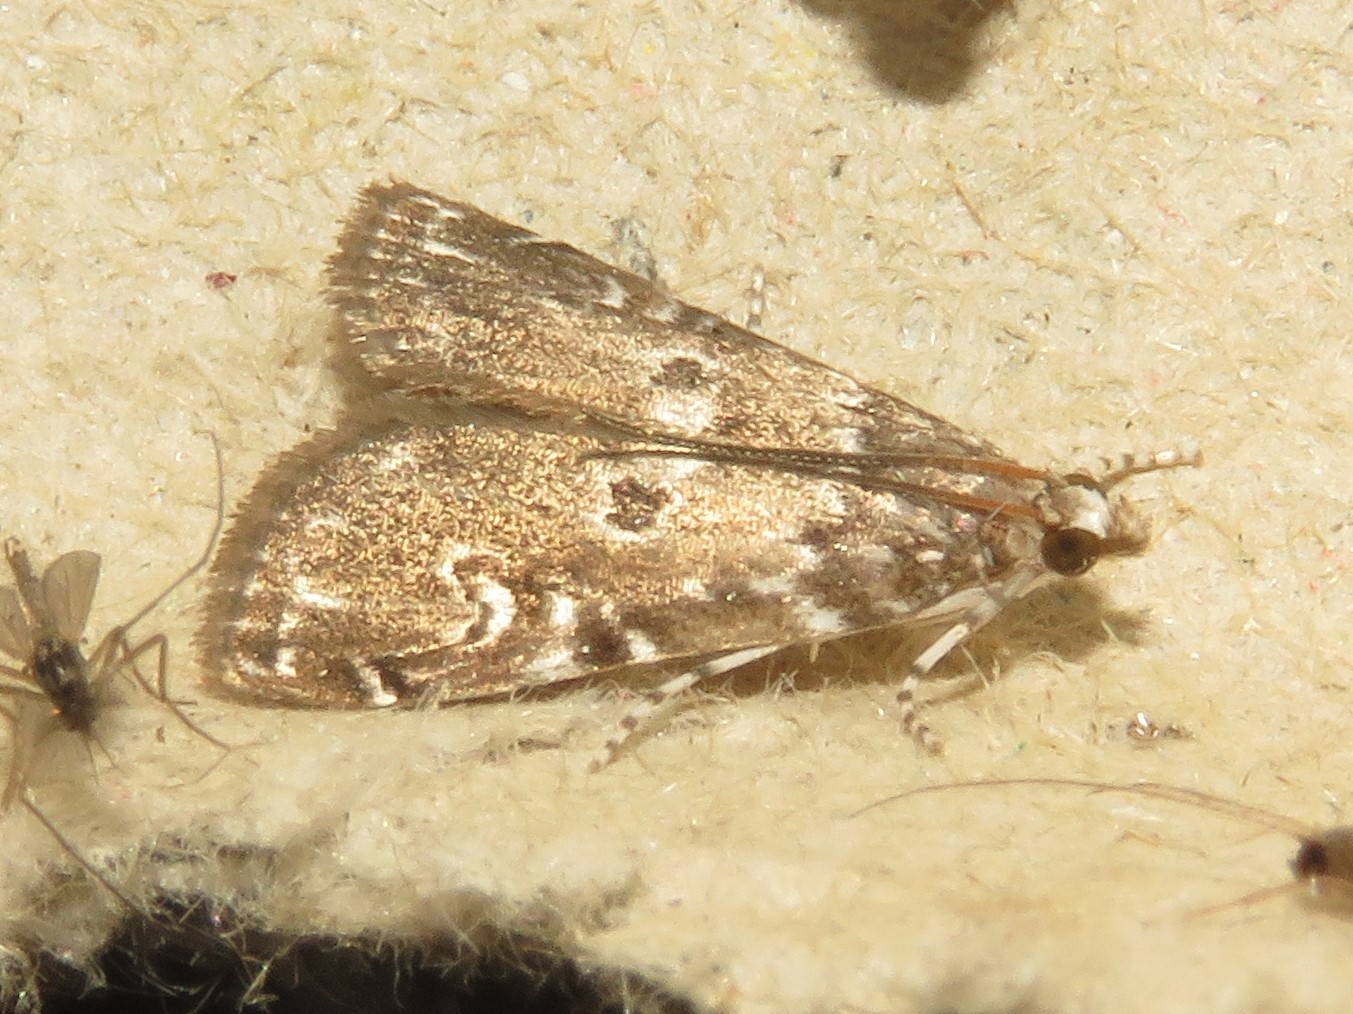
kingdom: Animalia
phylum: Arthropoda
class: Insecta
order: Lepidoptera
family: Crambidae
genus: Elophila
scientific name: Elophila gyralis
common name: Waterlily borer moth
